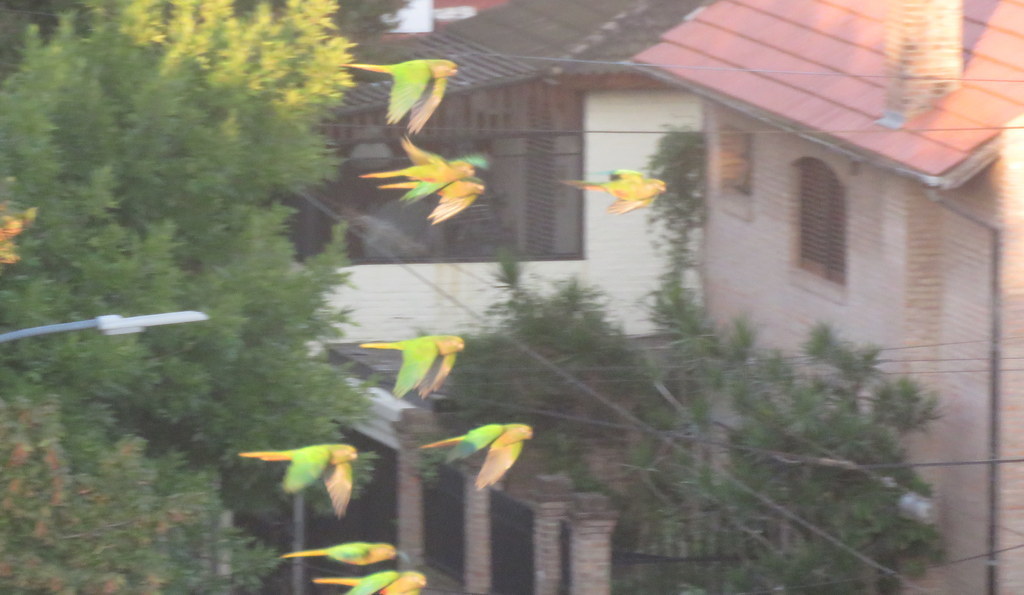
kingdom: Animalia
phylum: Chordata
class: Aves
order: Psittaciformes
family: Psittacidae
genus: Pyrrhura
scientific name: Pyrrhura frontalis
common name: Maroon-bellied parakeet
